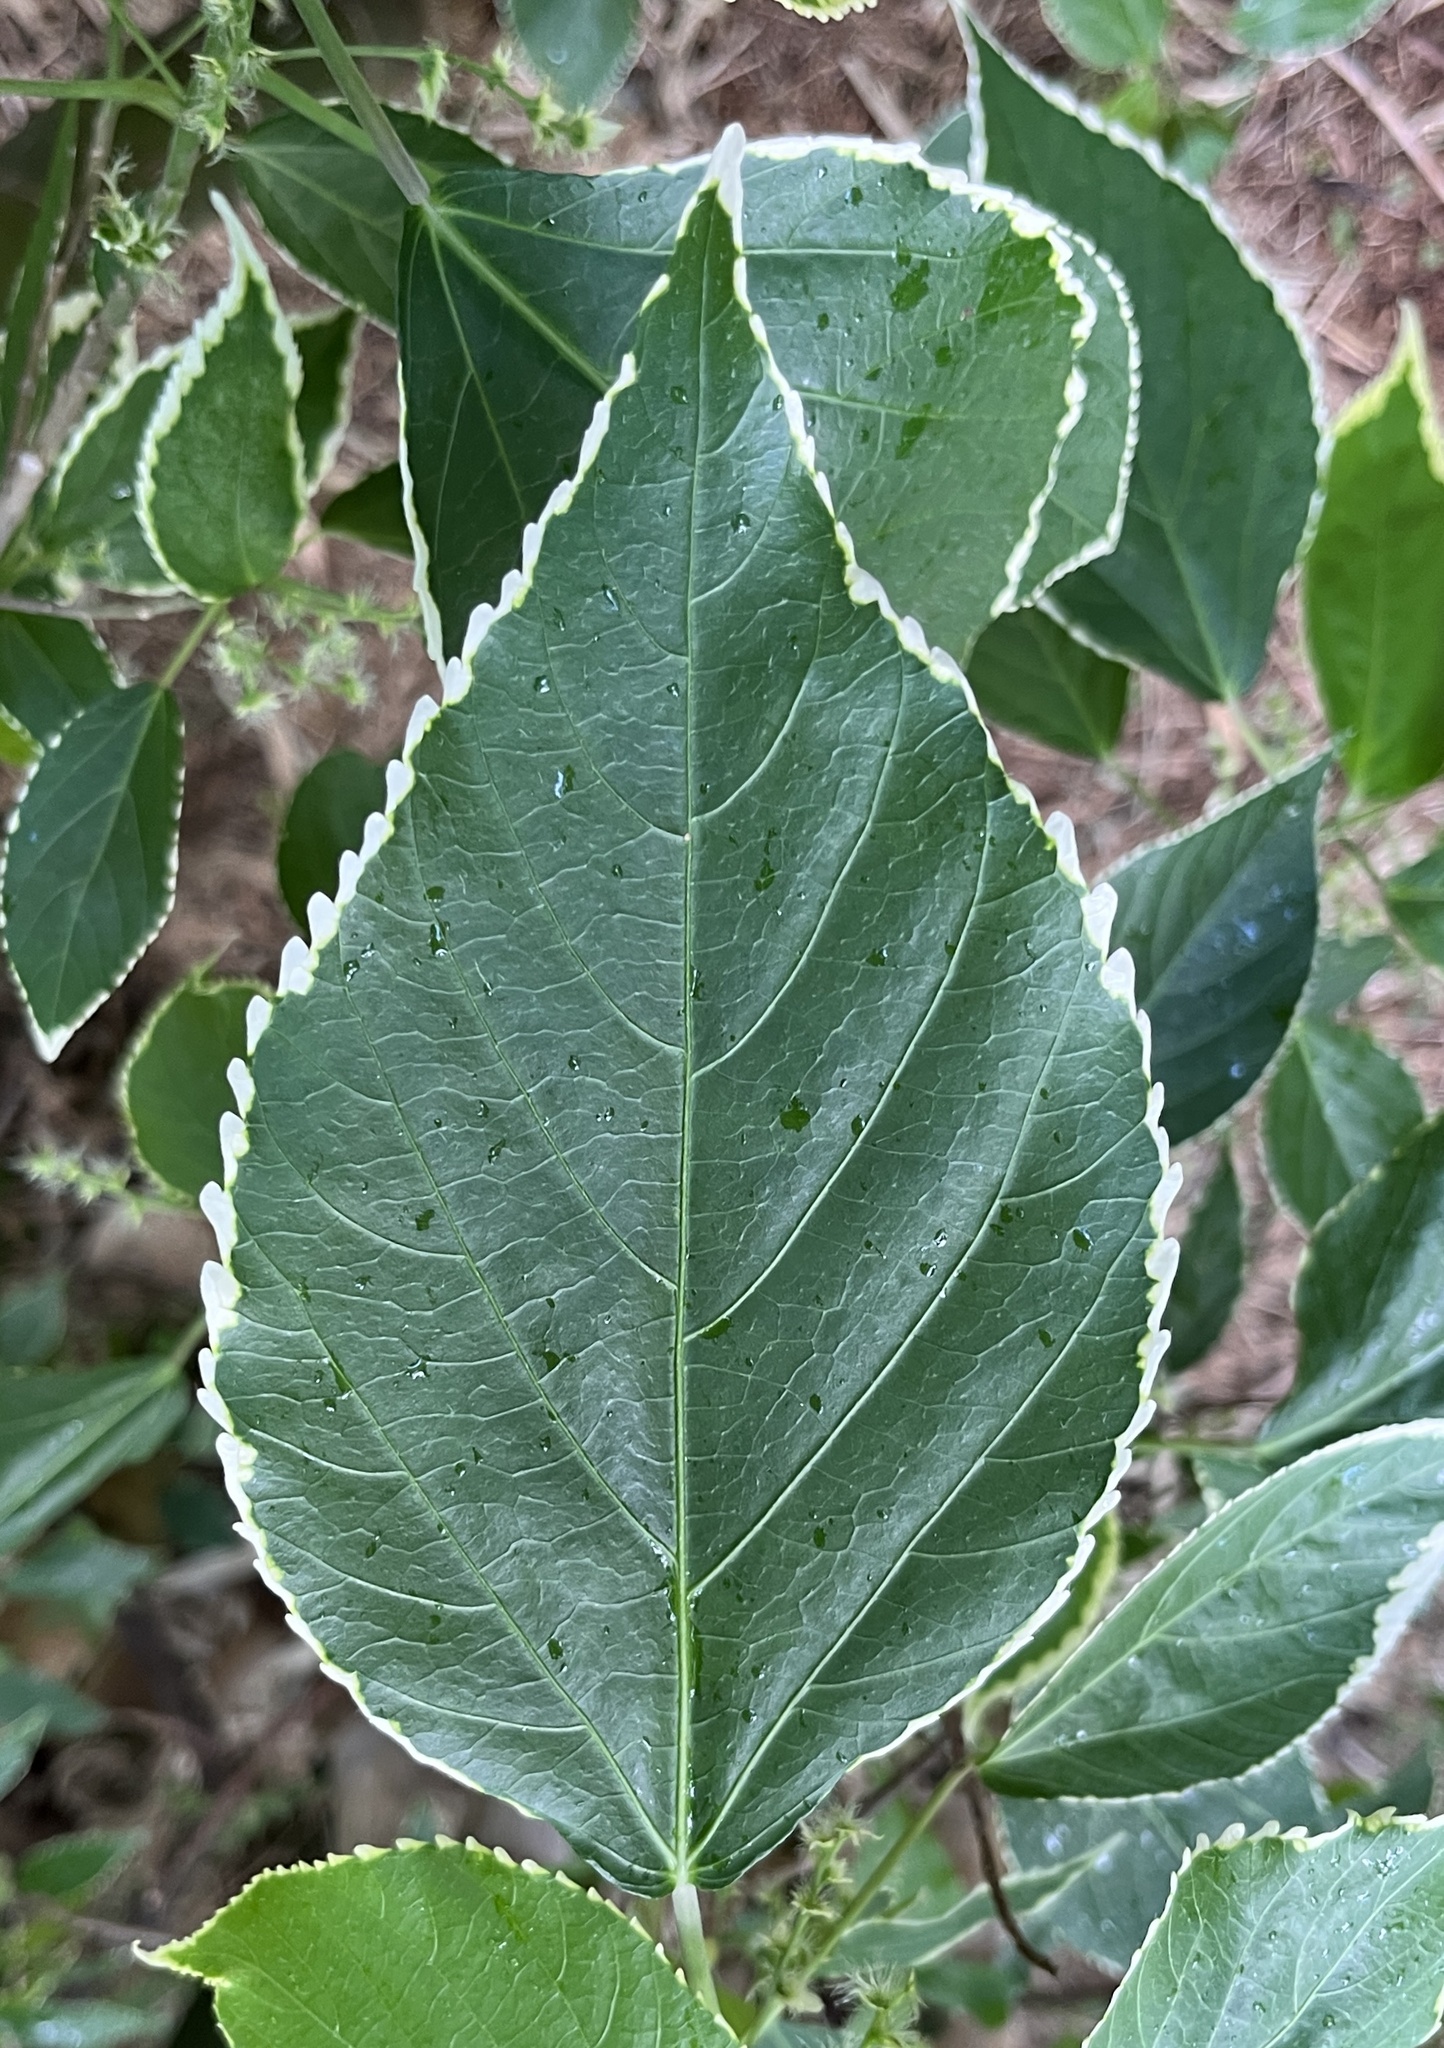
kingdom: Plantae
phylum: Tracheophyta
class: Magnoliopsida
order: Malpighiales
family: Euphorbiaceae
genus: Acalypha
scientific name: Acalypha wilkesiana
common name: Jacob's coat
